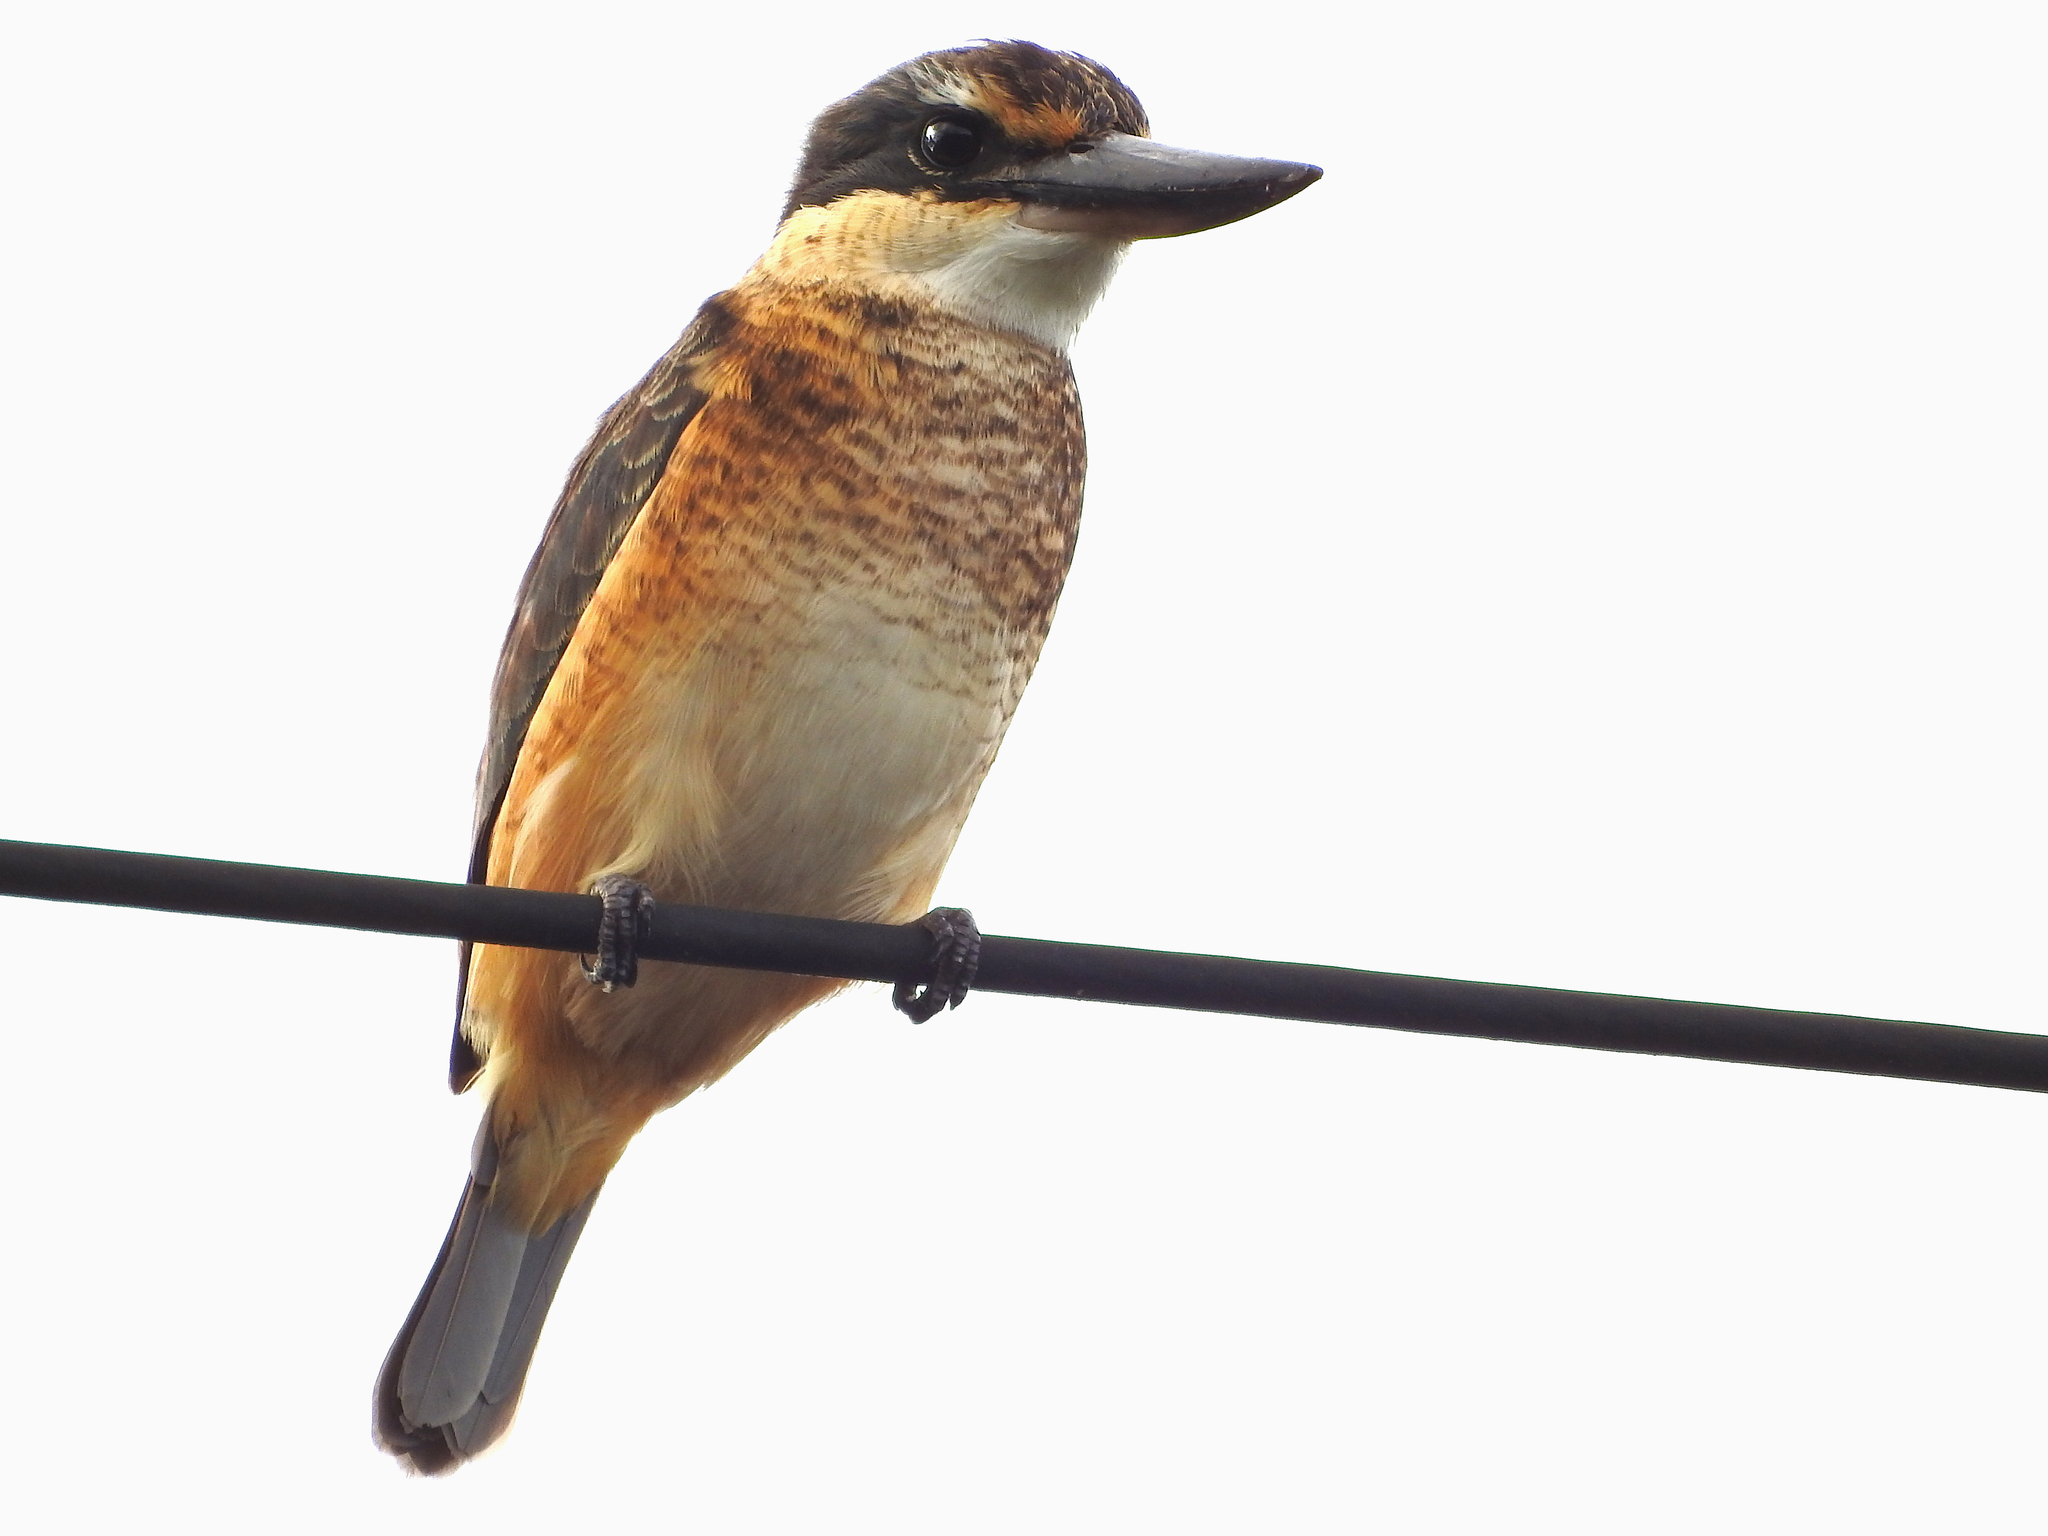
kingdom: Animalia
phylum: Chordata
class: Aves
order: Coraciiformes
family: Alcedinidae
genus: Todiramphus
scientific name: Todiramphus sanctus
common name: Sacred kingfisher
